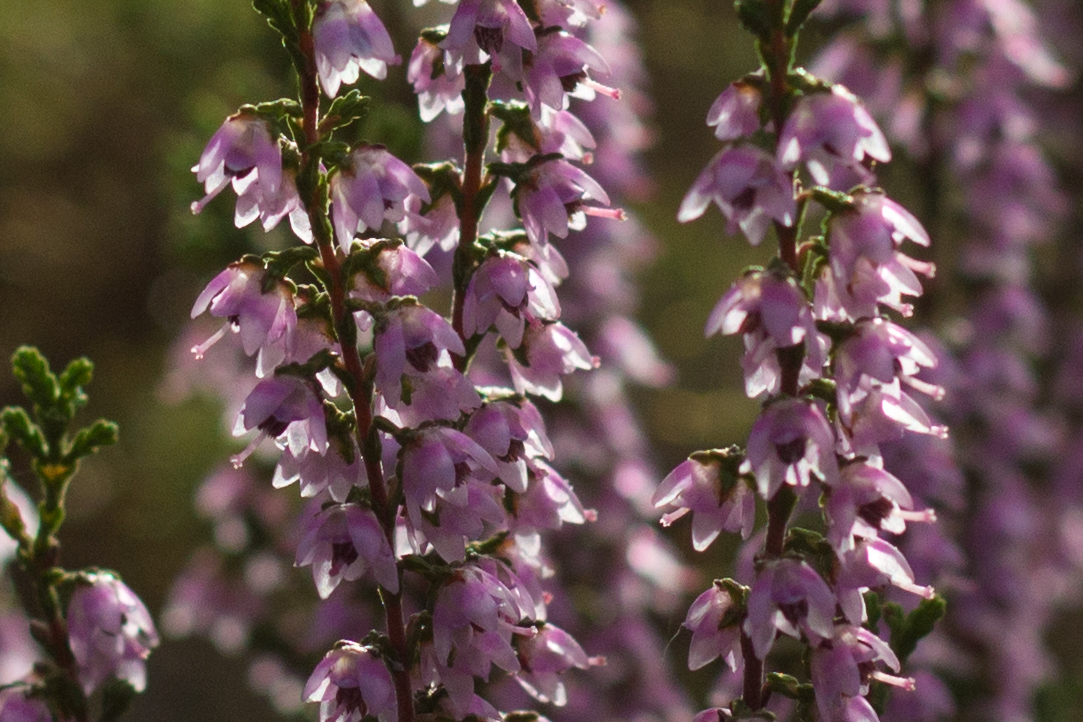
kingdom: Plantae
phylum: Tracheophyta
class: Magnoliopsida
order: Ericales
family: Ericaceae
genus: Calluna
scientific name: Calluna vulgaris
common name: Heather
